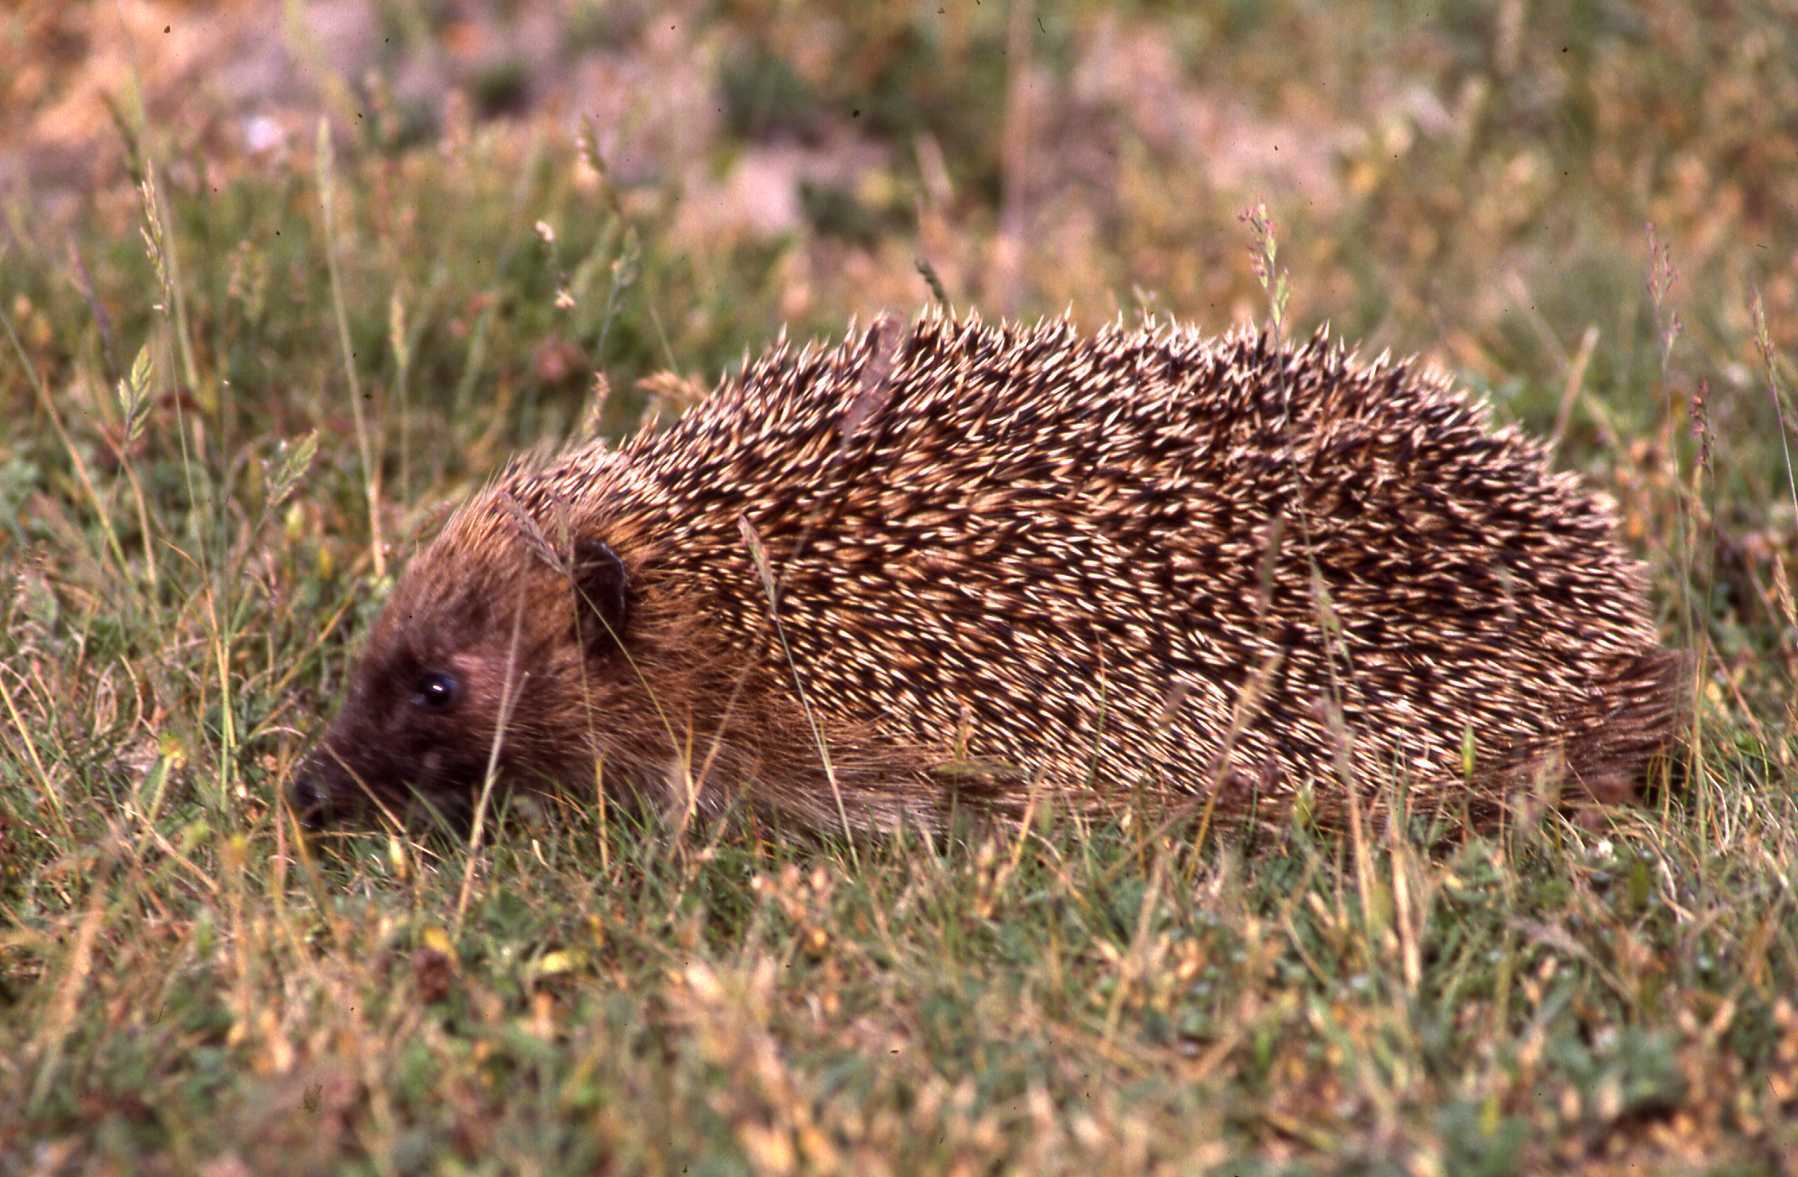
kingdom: Animalia
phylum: Chordata
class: Mammalia
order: Erinaceomorpha
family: Erinaceidae
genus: Erinaceus
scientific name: Erinaceus europaeus
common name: West european hedgehog
